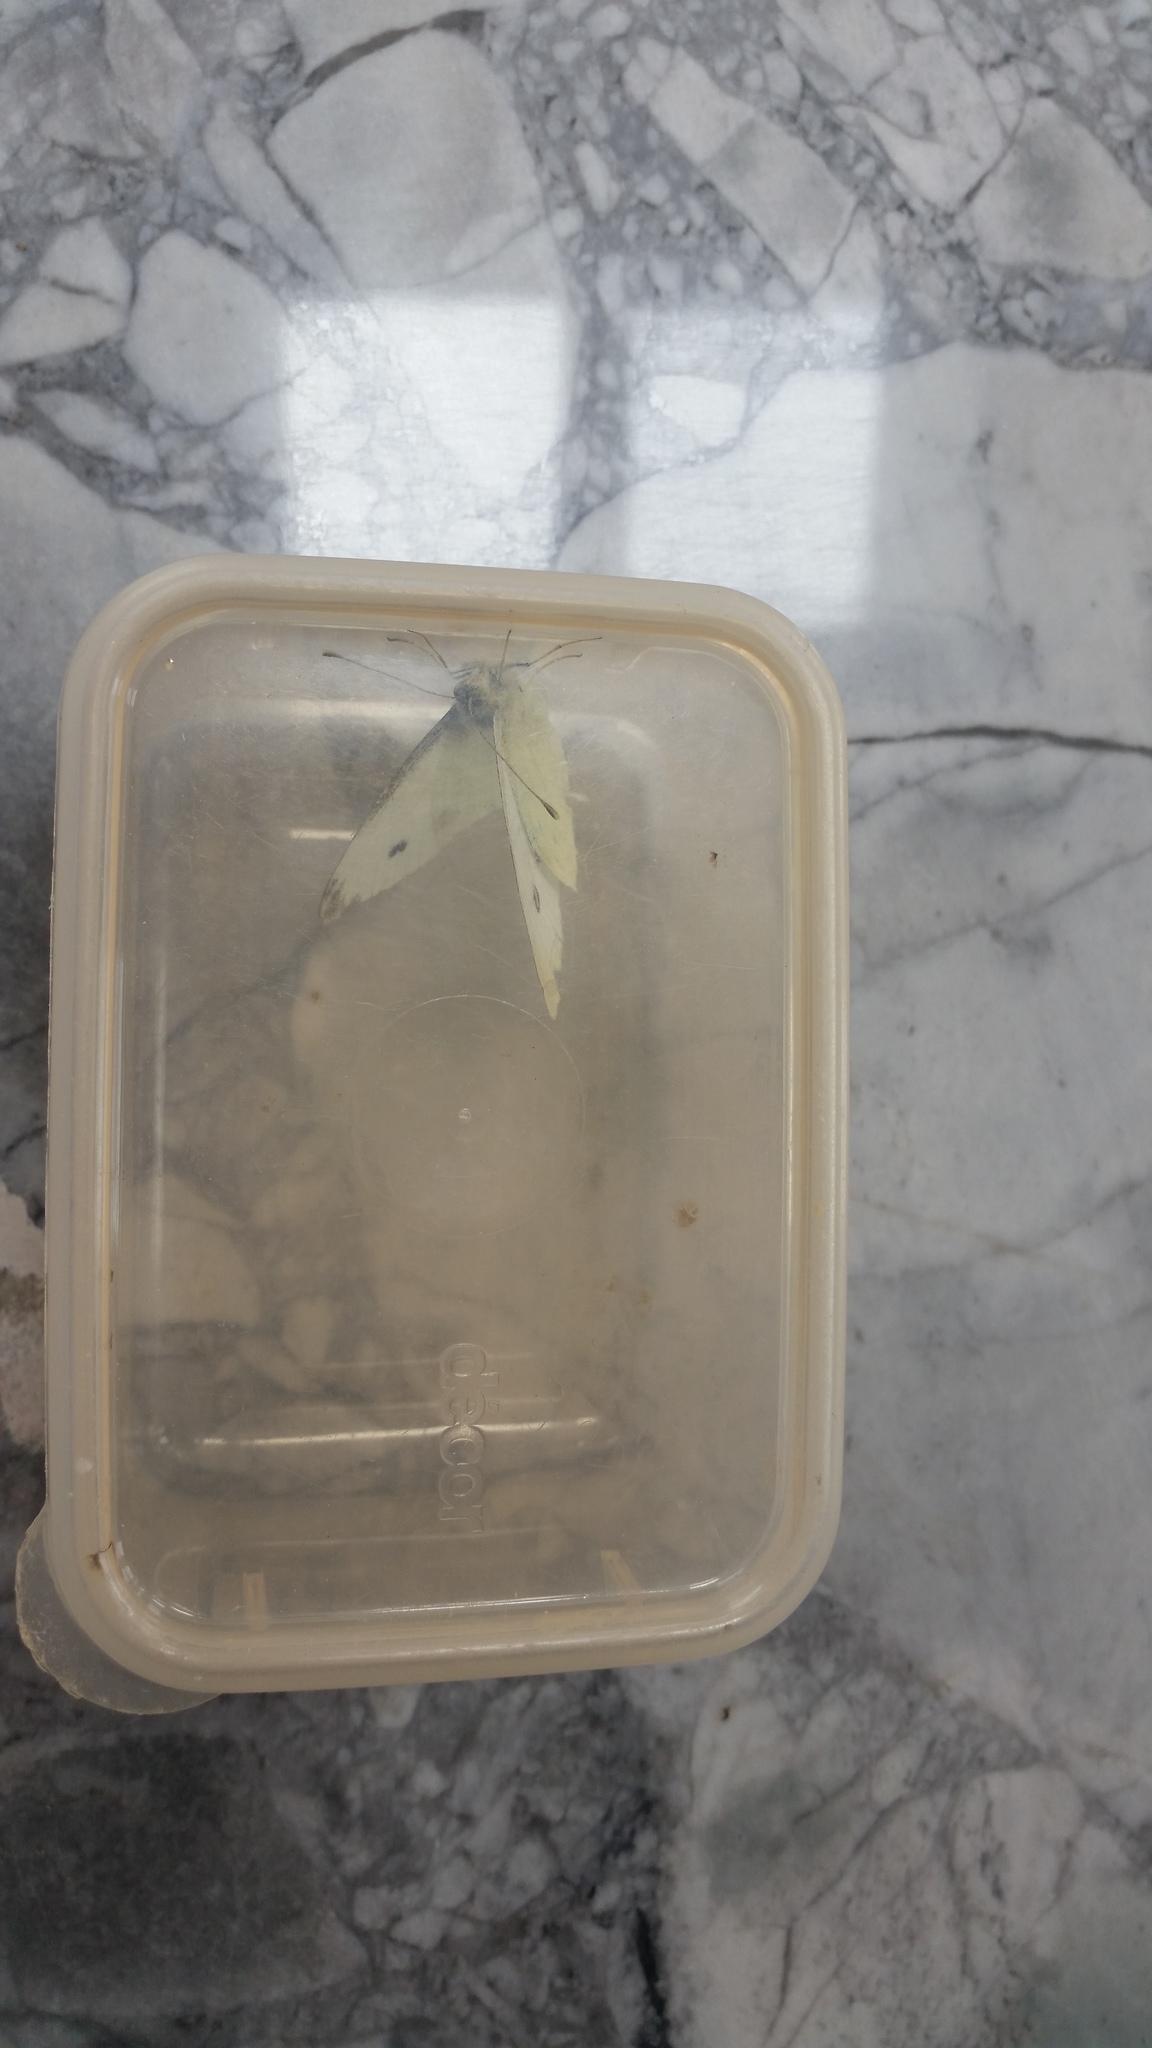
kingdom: Animalia
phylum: Arthropoda
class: Insecta
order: Lepidoptera
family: Pieridae
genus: Pieris
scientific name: Pieris rapae
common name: Small white
